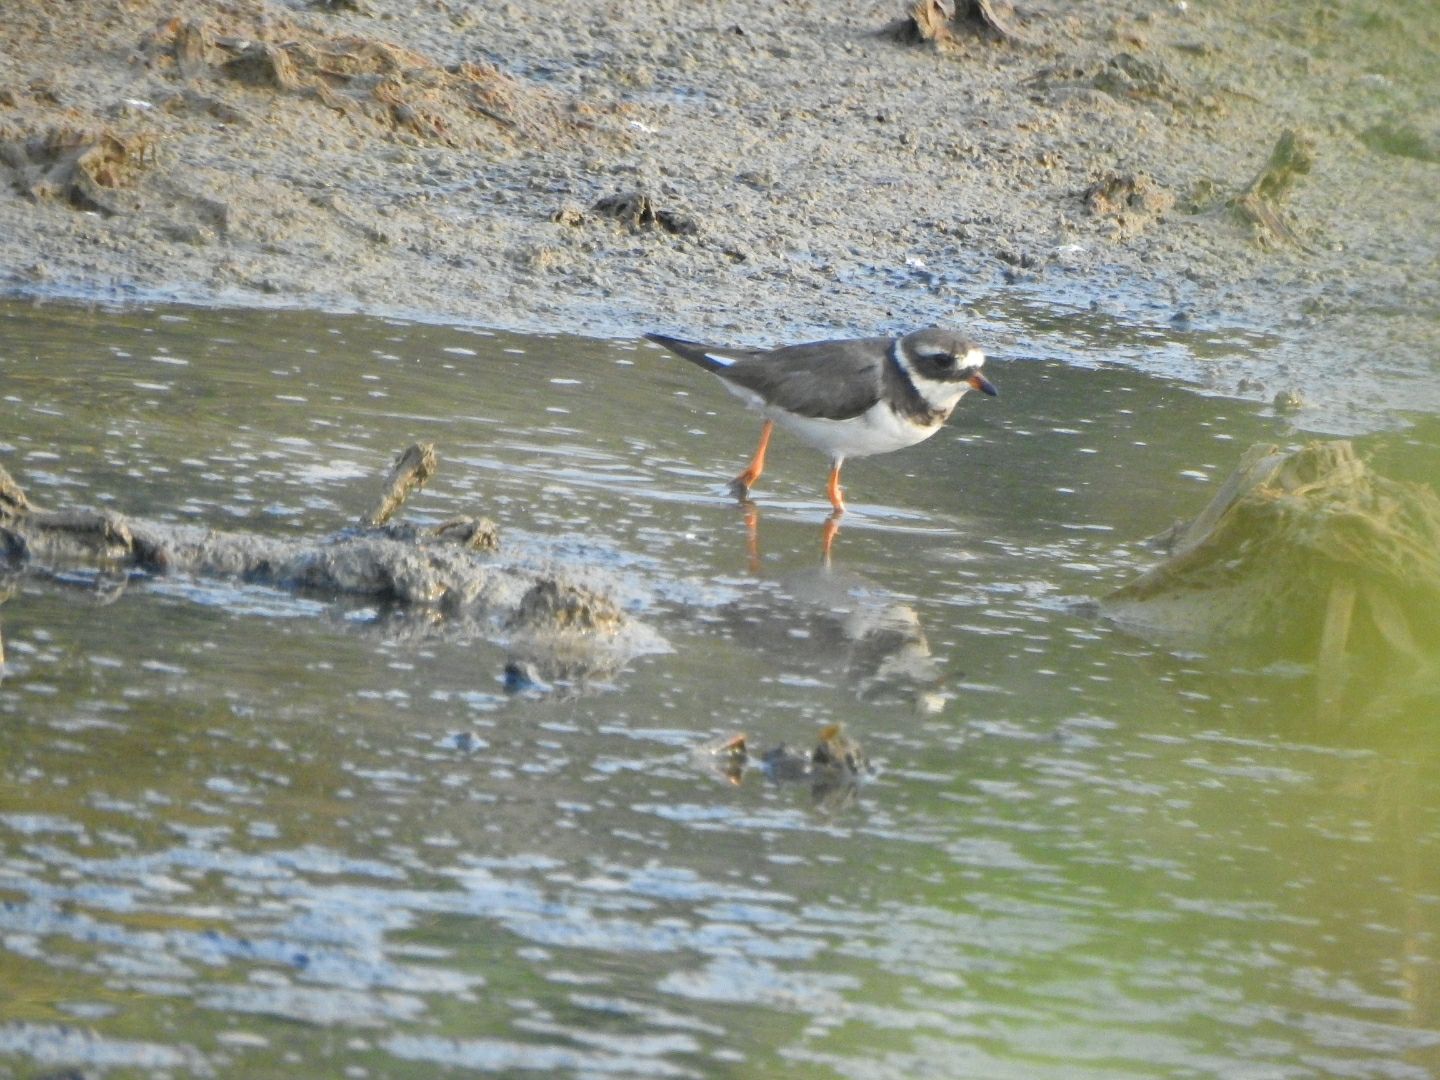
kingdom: Animalia
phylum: Chordata
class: Aves
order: Charadriiformes
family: Charadriidae
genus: Charadrius
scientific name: Charadrius hiaticula
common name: Common ringed plover
